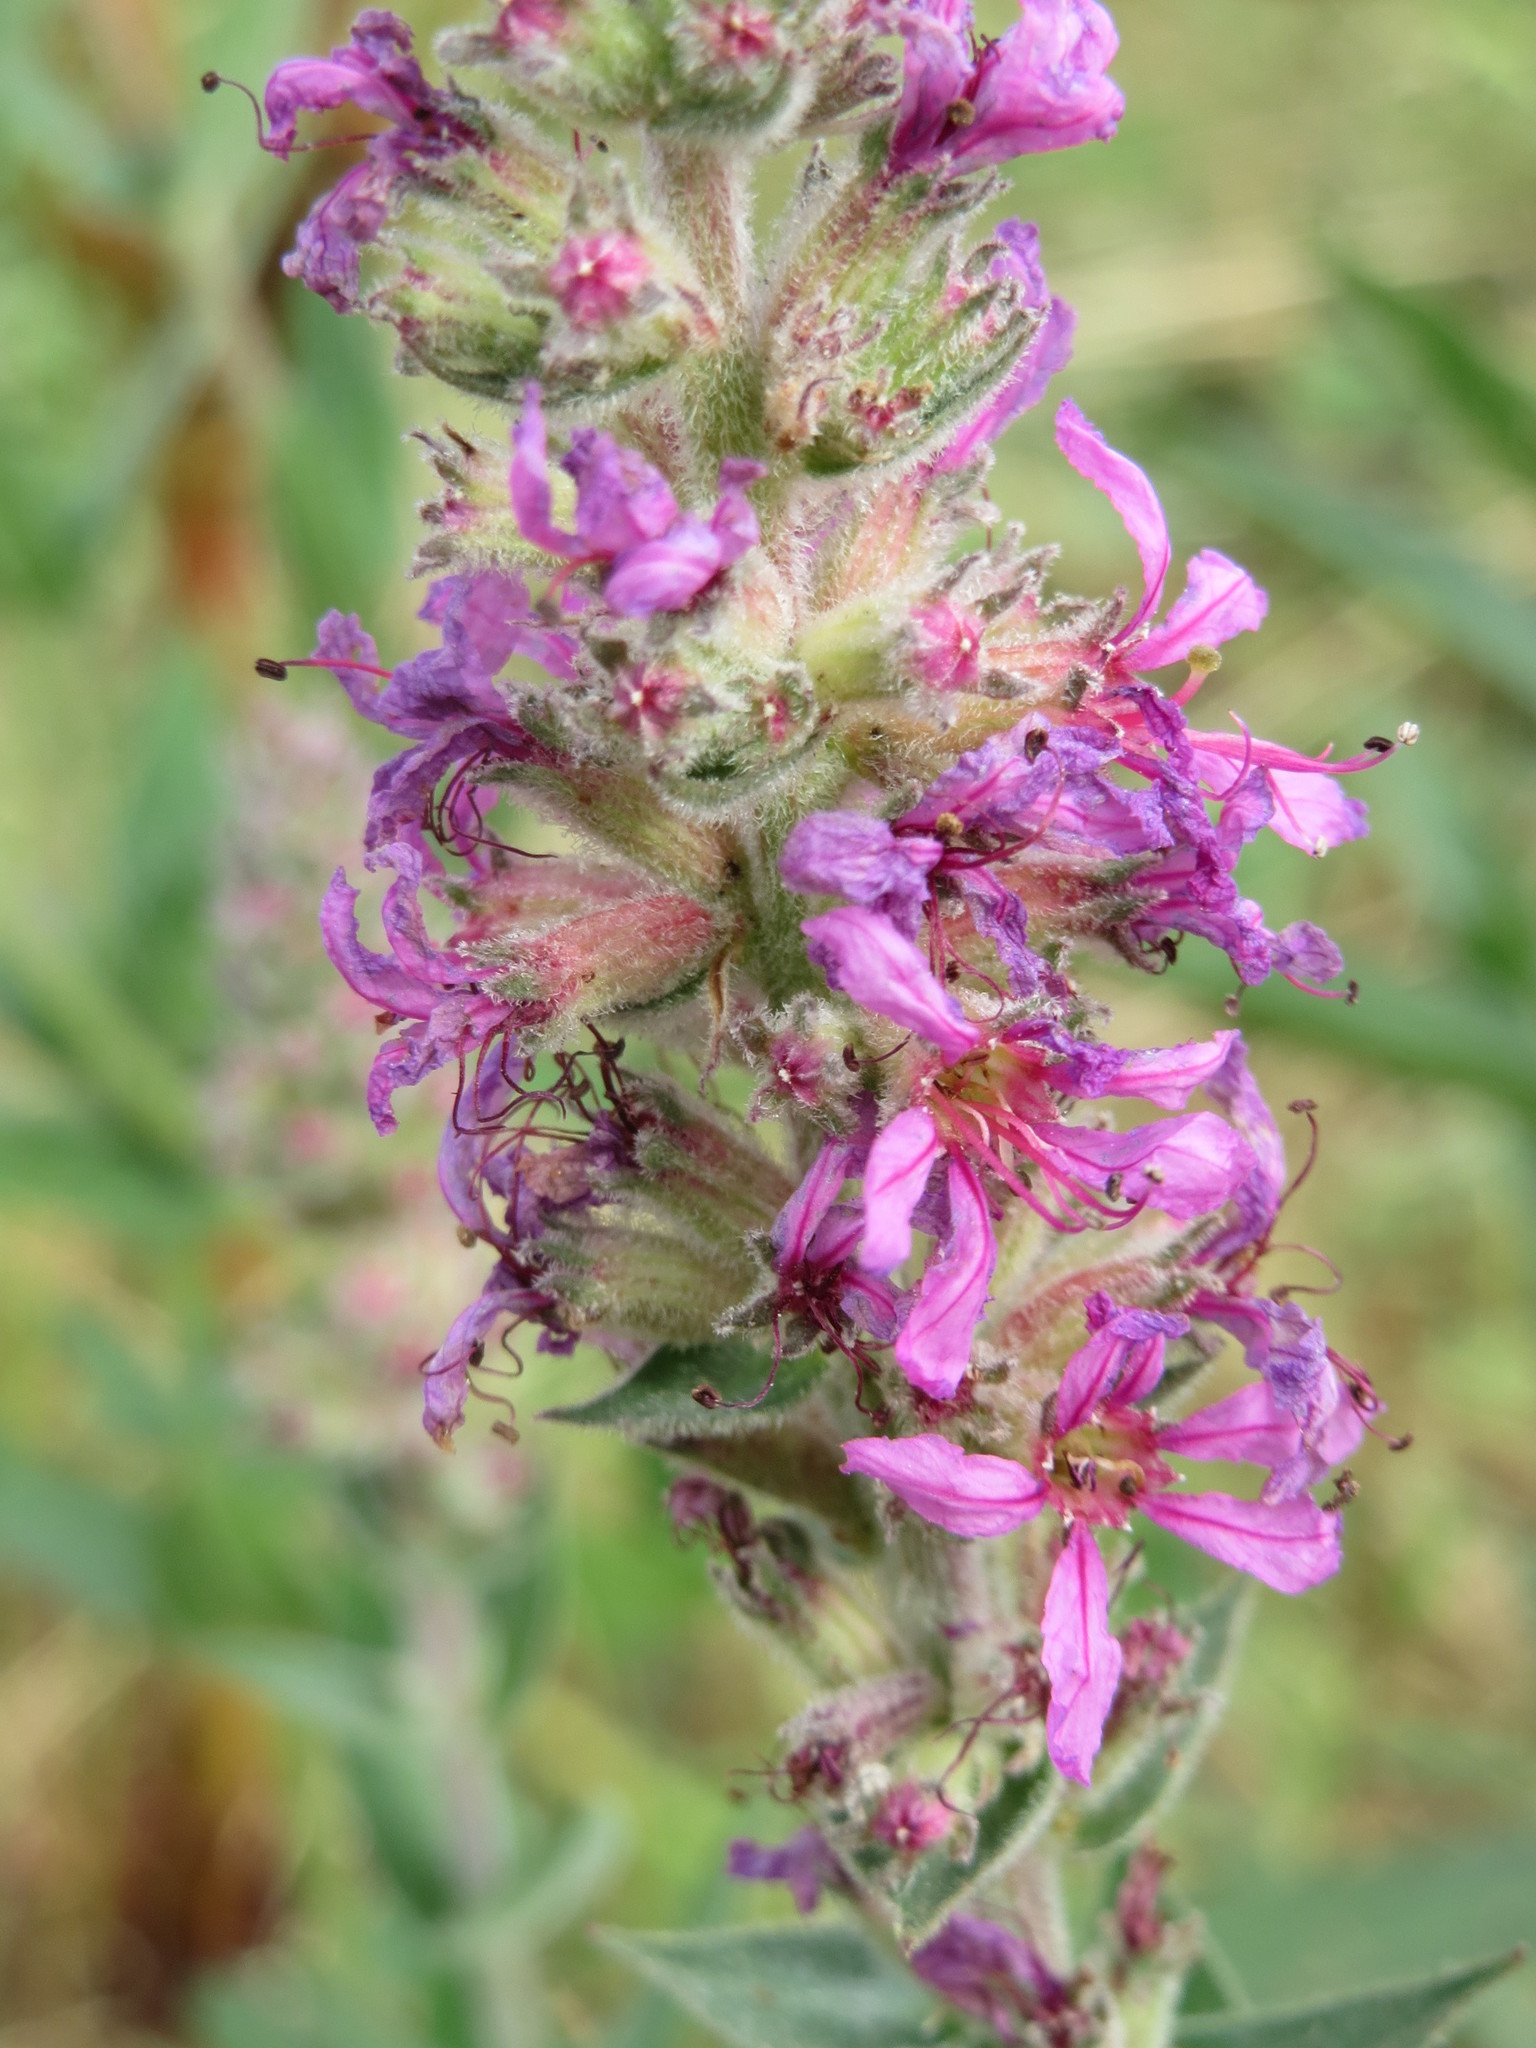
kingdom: Plantae
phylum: Tracheophyta
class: Magnoliopsida
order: Myrtales
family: Lythraceae
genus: Lythrum
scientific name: Lythrum salicaria
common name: Purple loosestrife
